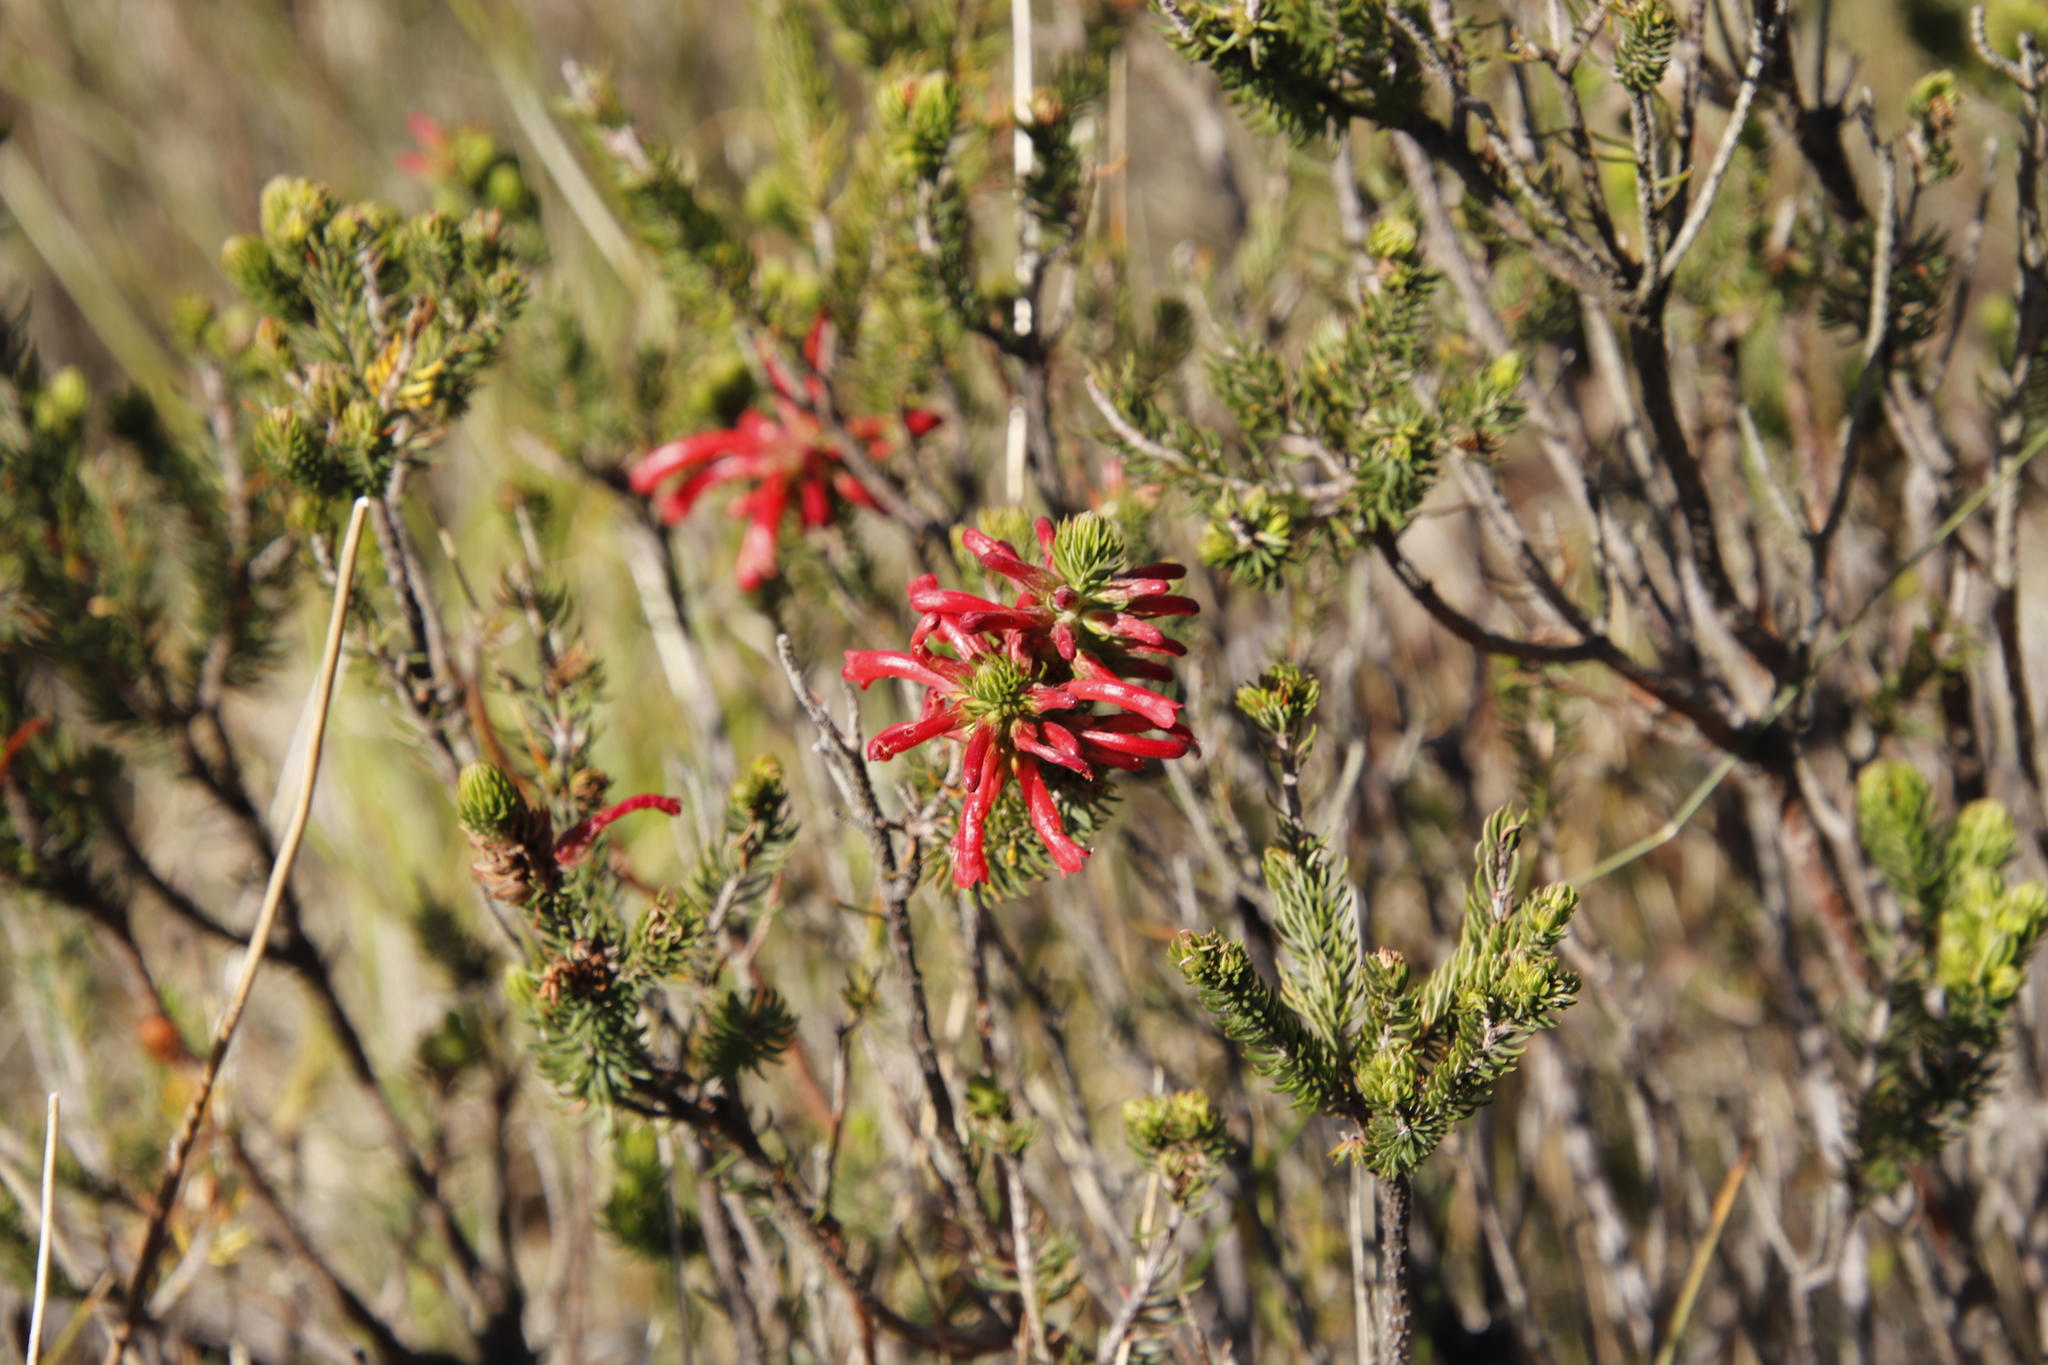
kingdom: Plantae
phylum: Tracheophyta
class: Magnoliopsida
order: Ericales
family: Ericaceae
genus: Erica
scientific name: Erica abietina
